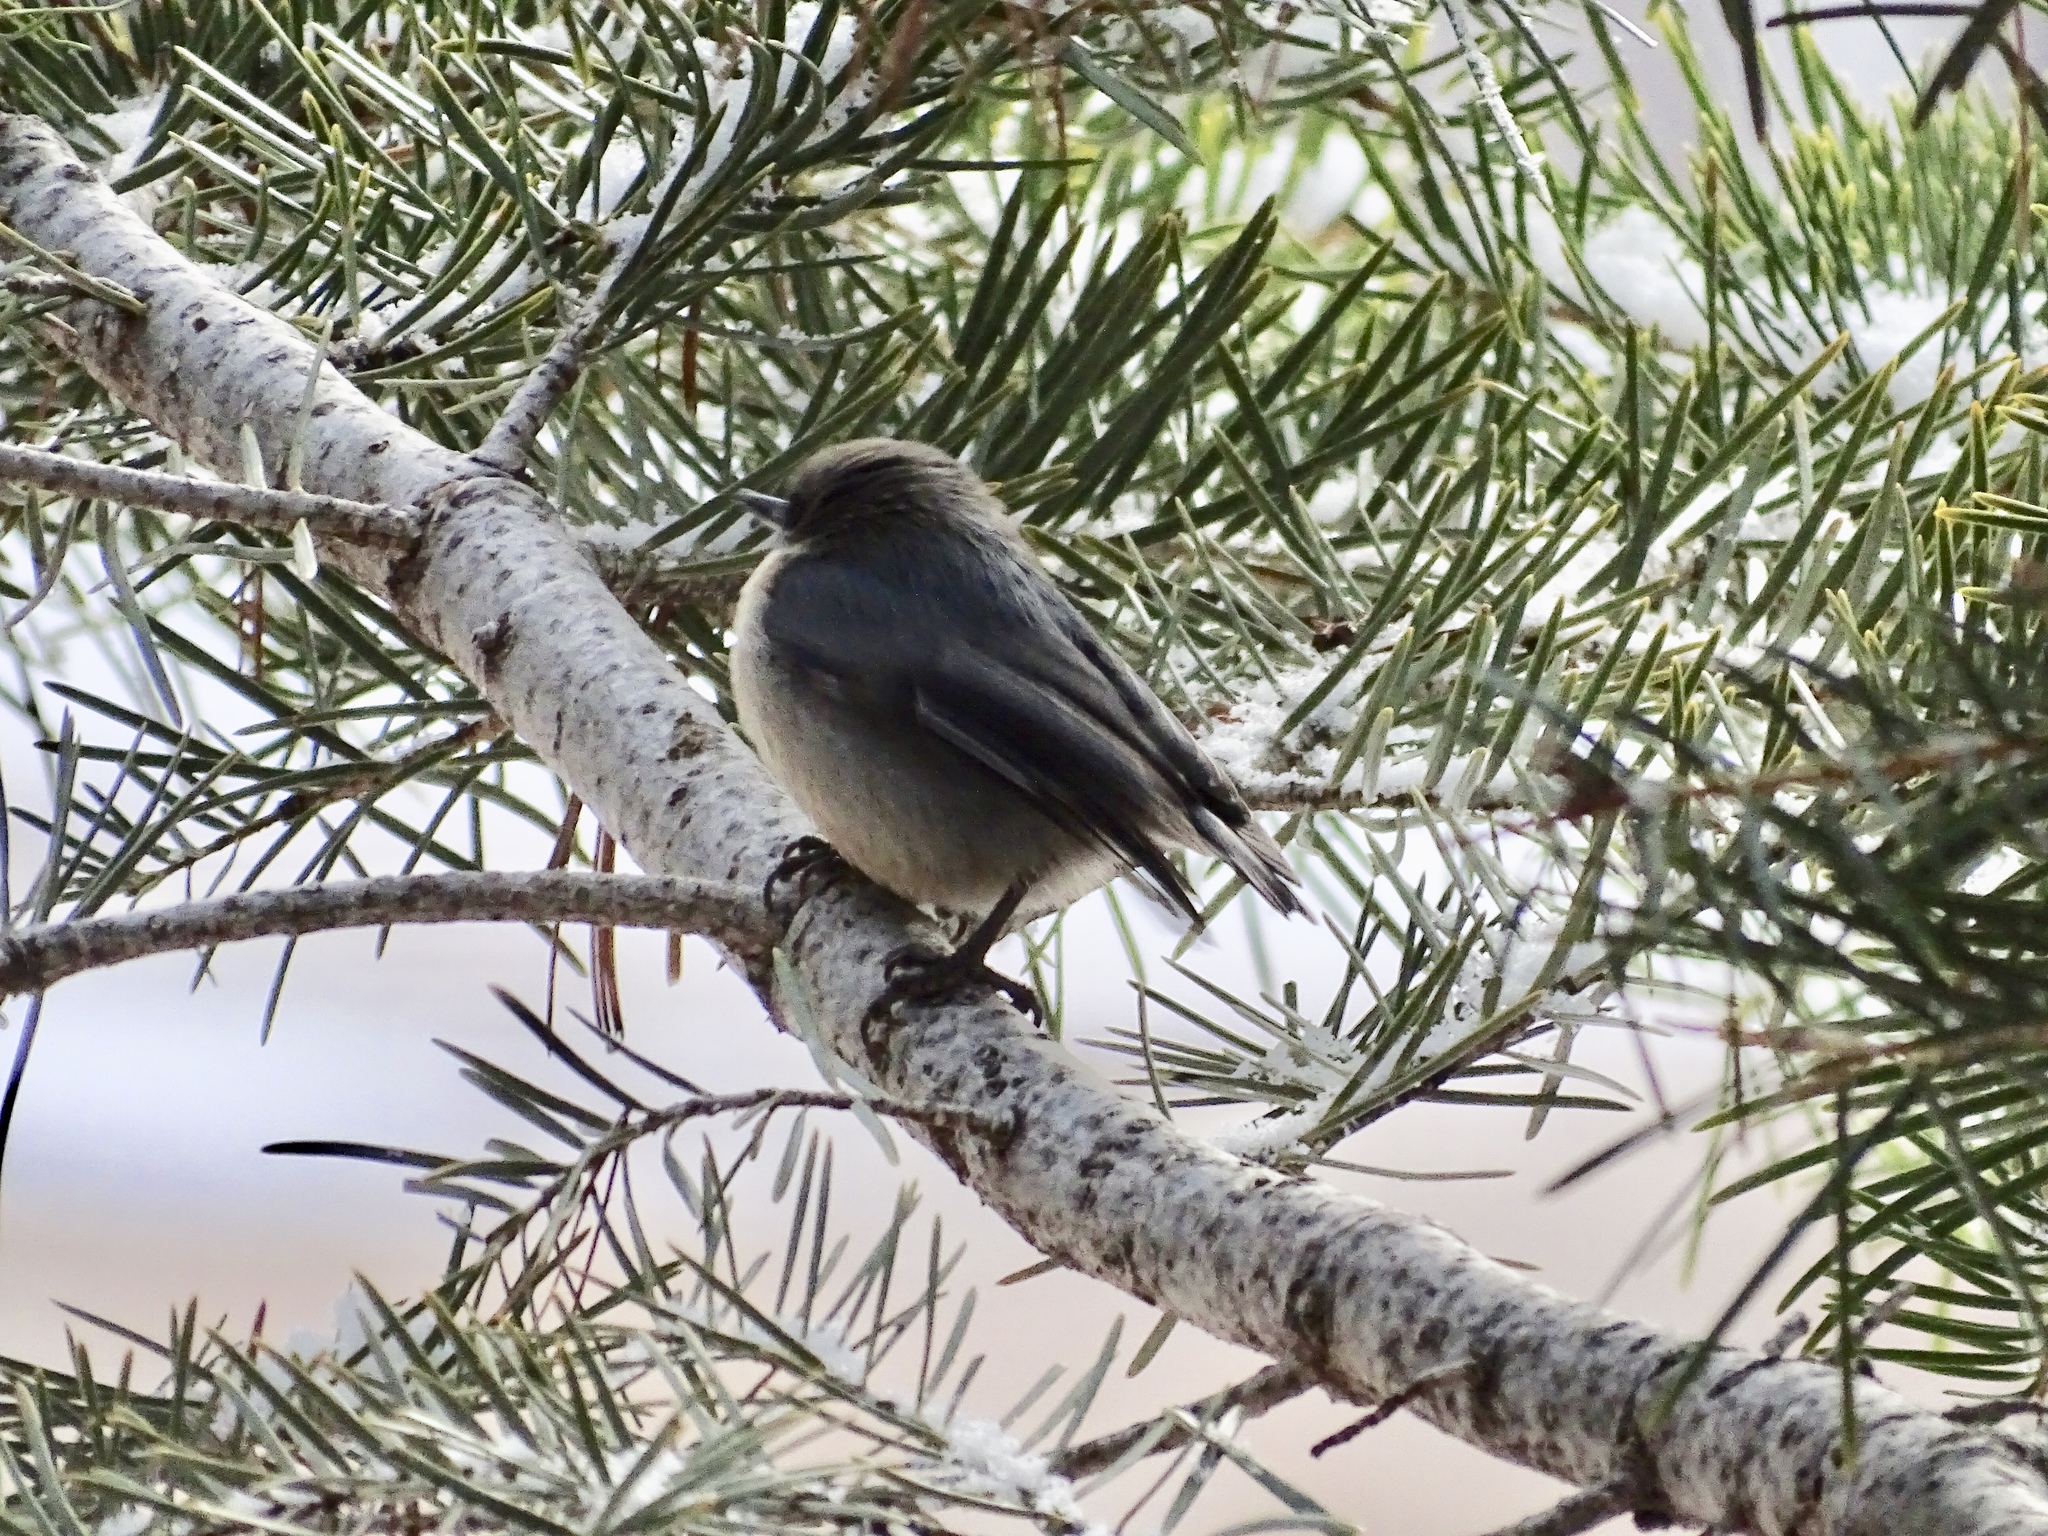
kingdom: Animalia
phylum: Chordata
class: Aves
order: Passeriformes
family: Sittidae
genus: Sitta
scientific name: Sitta pygmaea
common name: Pygmy nuthatch
